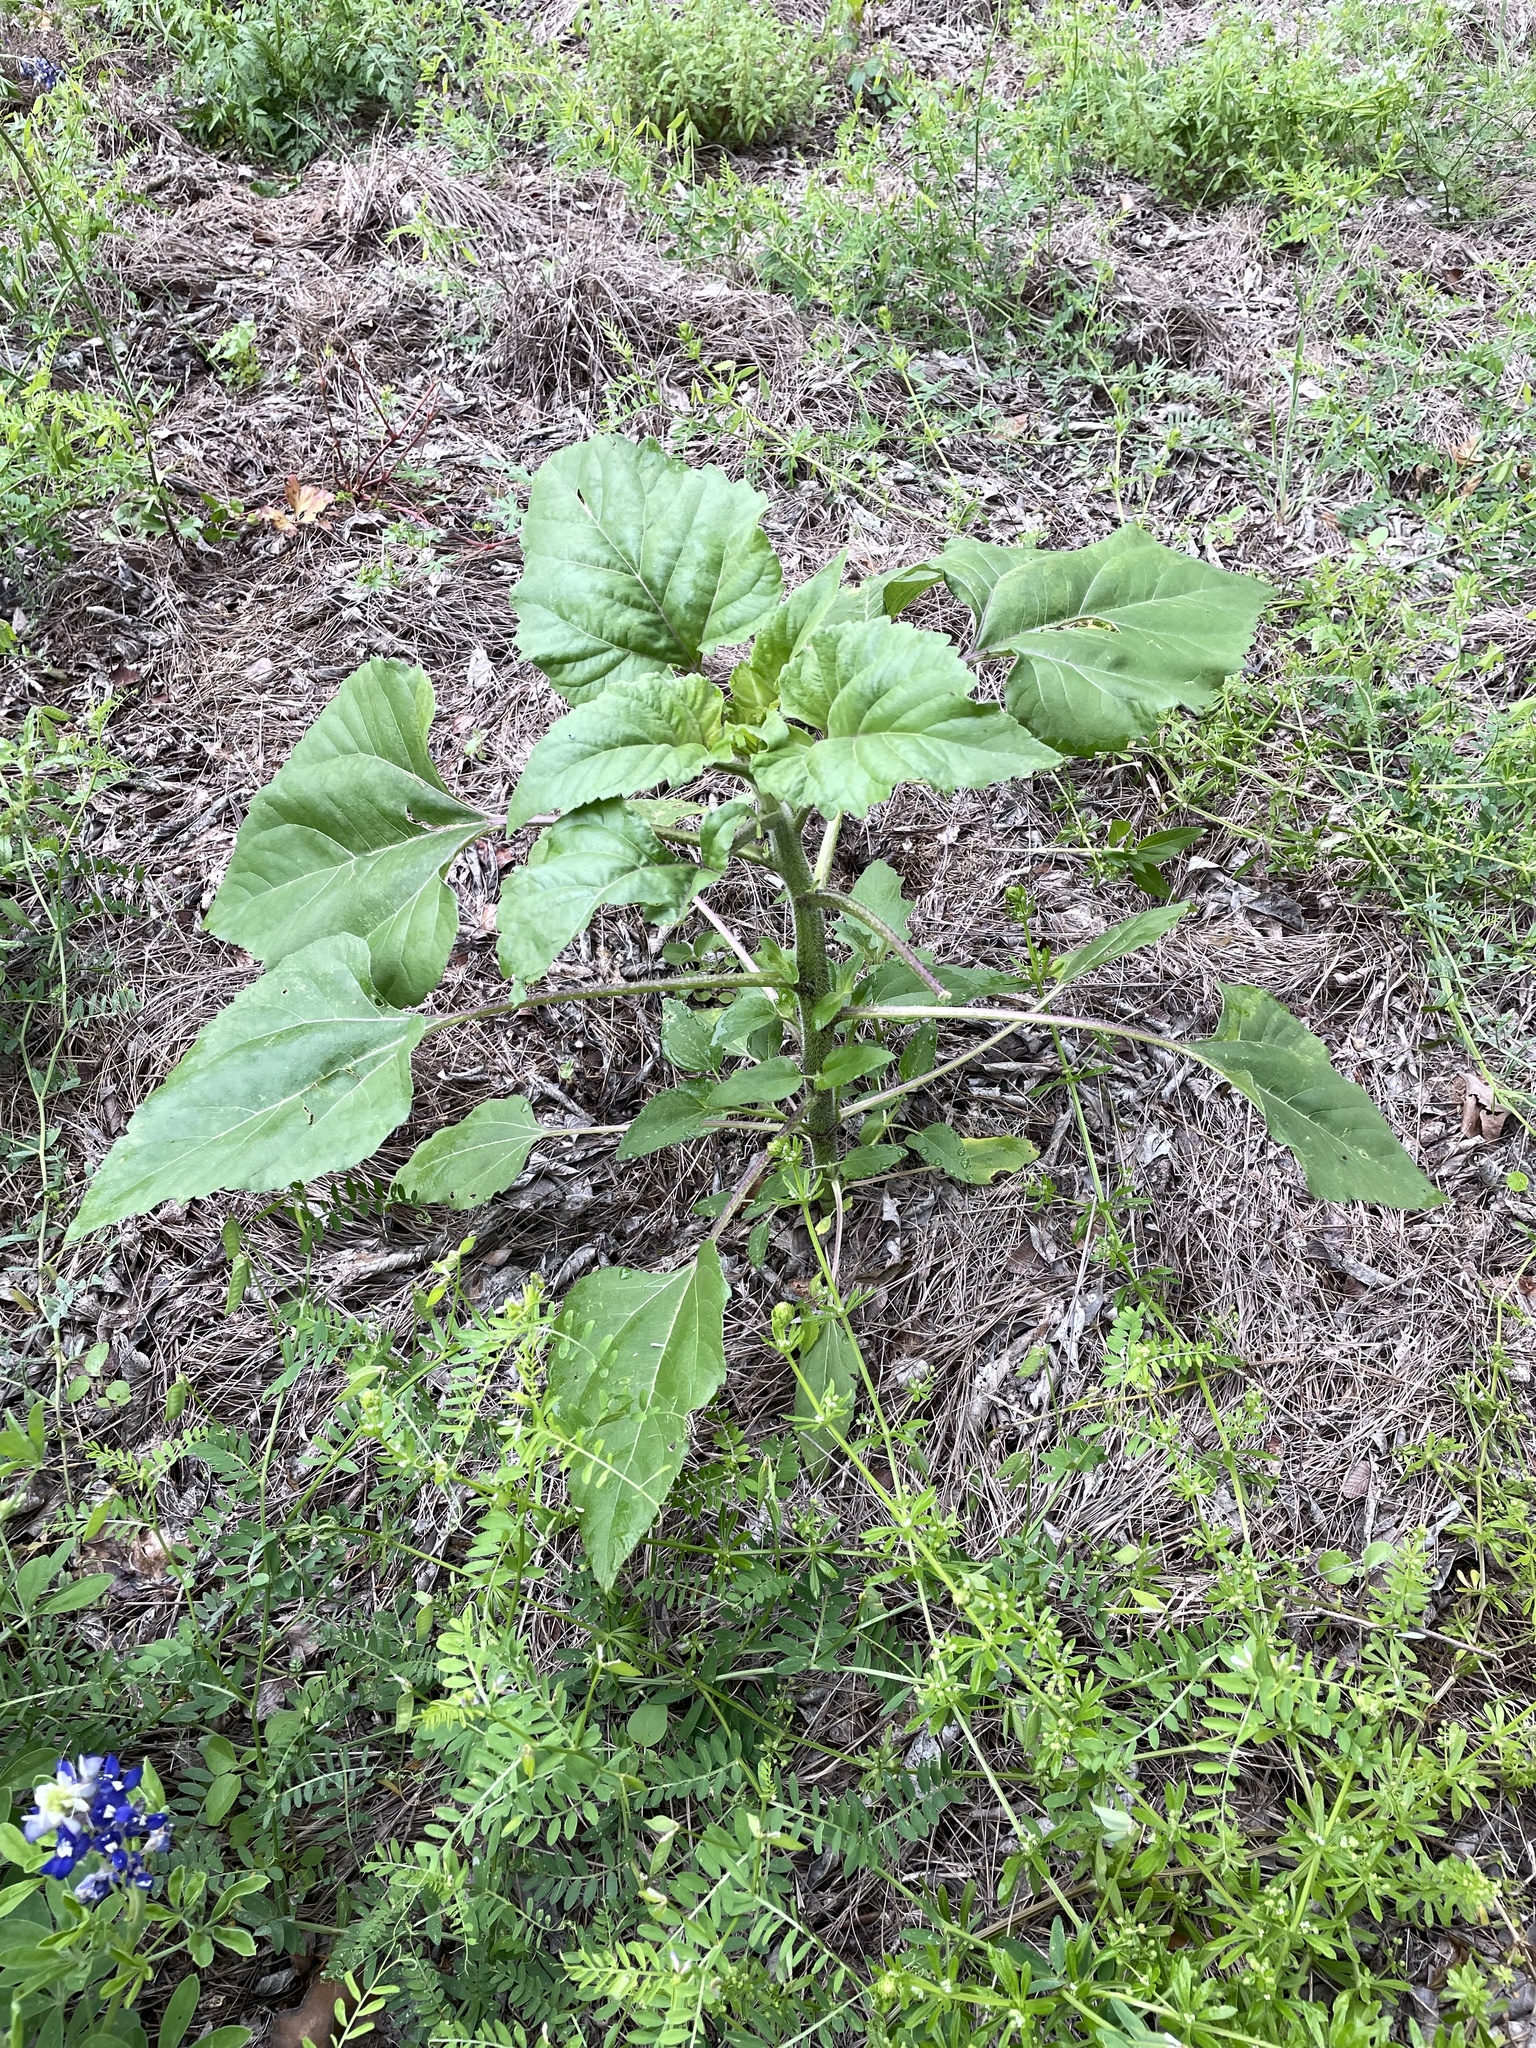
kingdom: Plantae
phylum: Tracheophyta
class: Magnoliopsida
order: Asterales
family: Asteraceae
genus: Helianthus
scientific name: Helianthus annuus
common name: Sunflower
